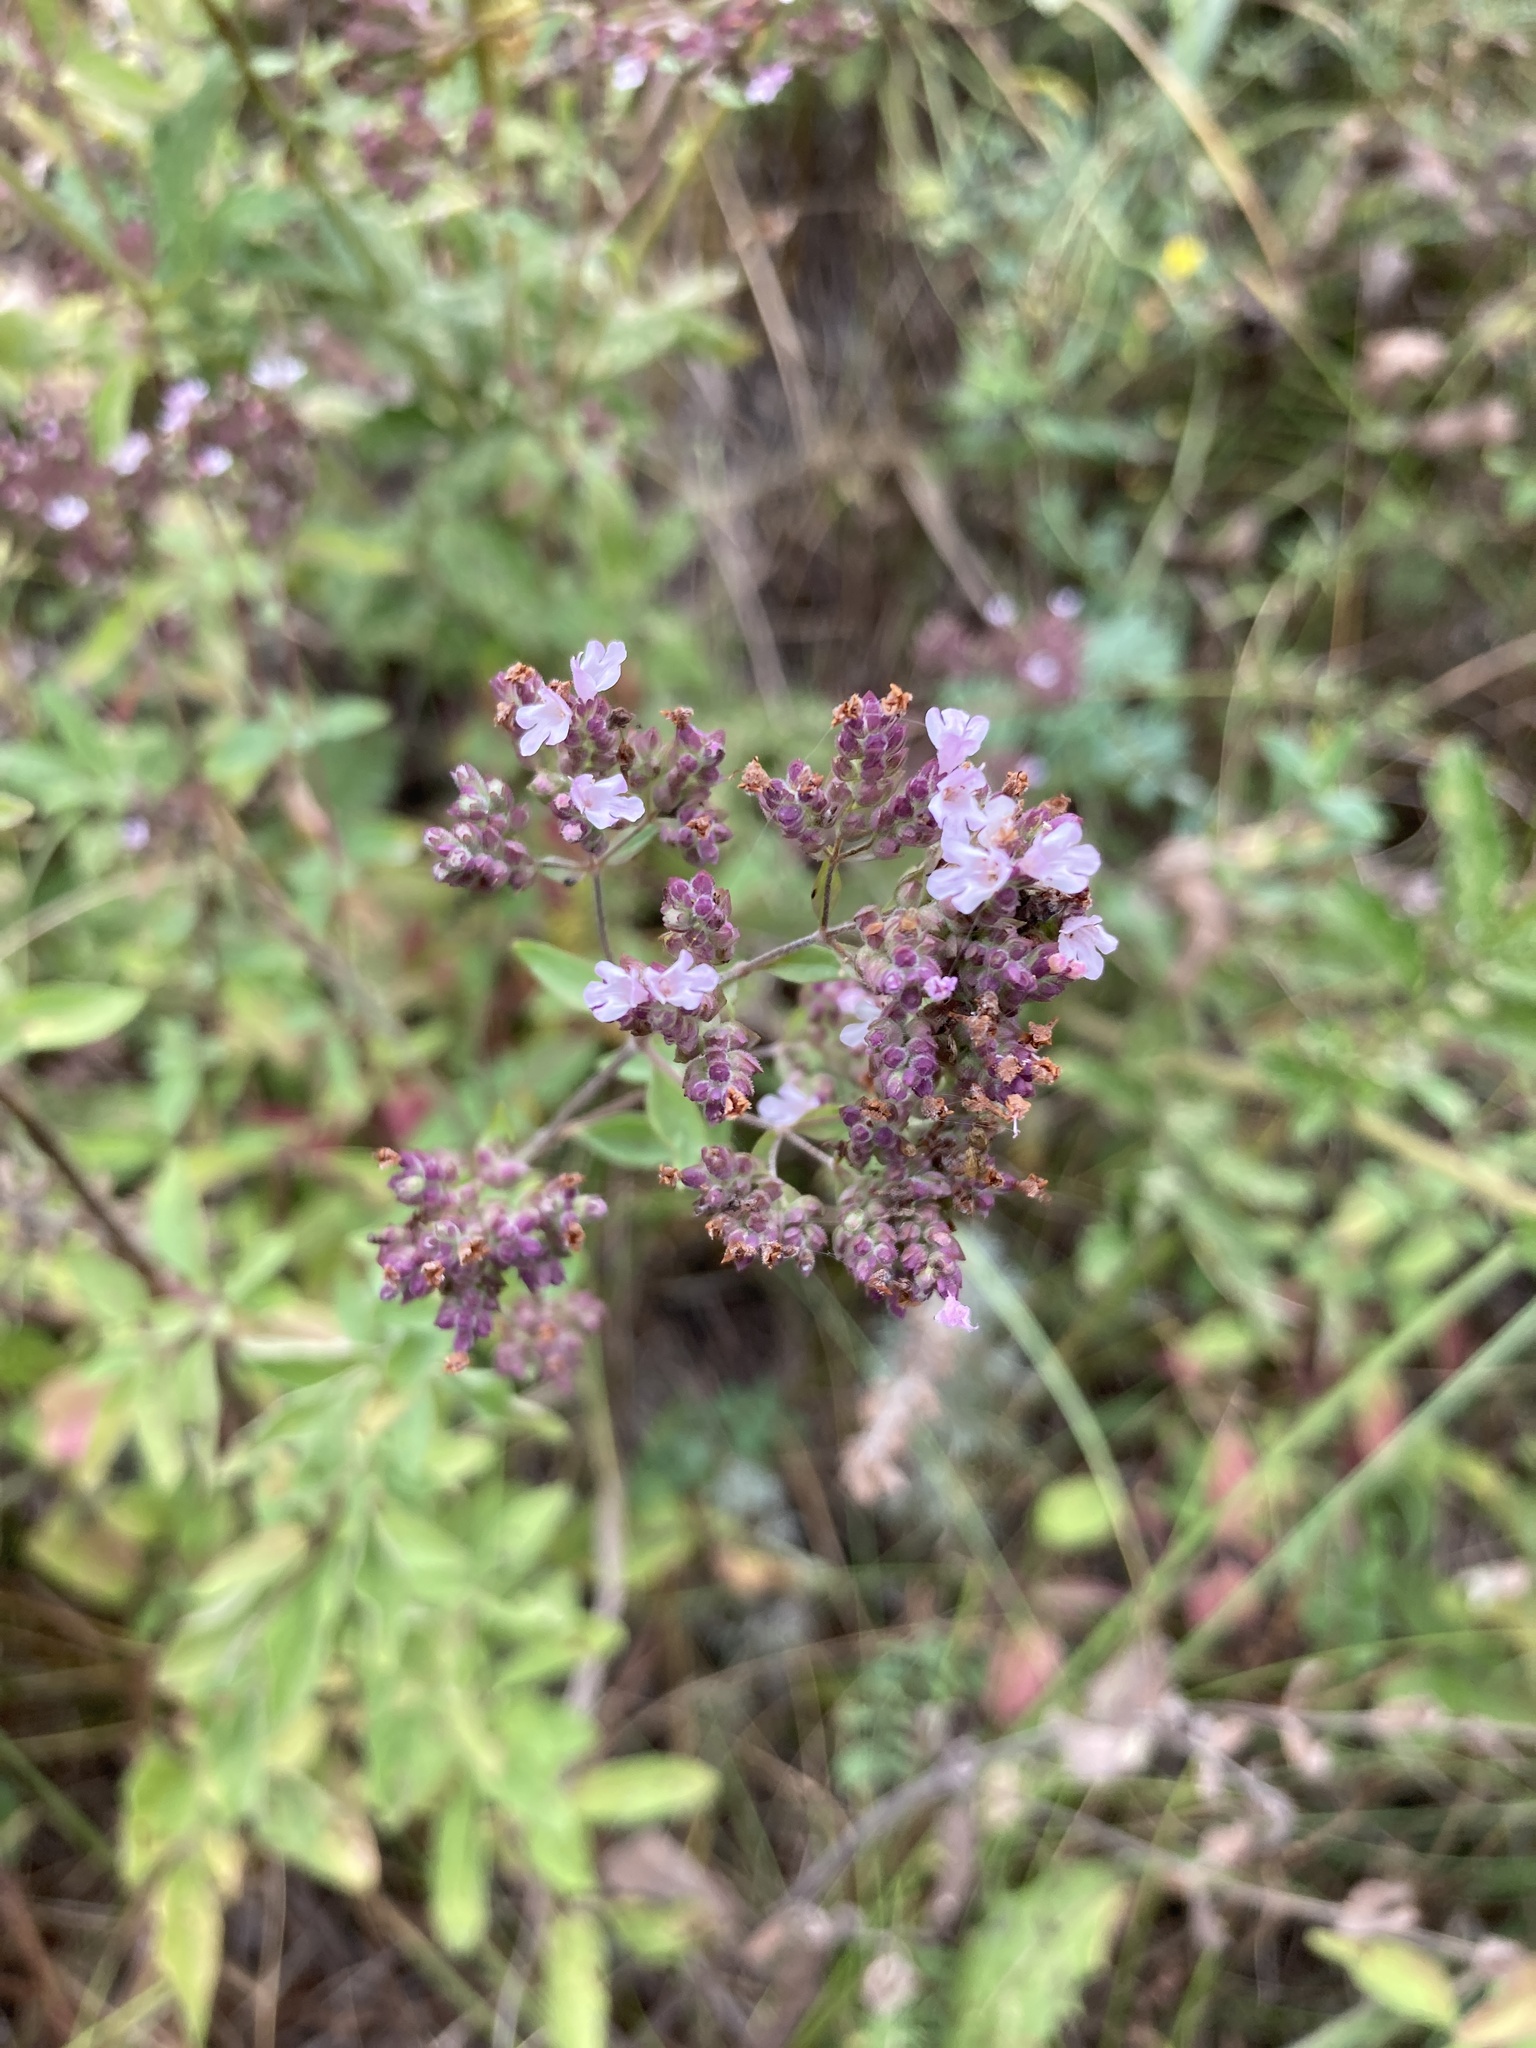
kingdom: Plantae
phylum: Tracheophyta
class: Magnoliopsida
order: Lamiales
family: Lamiaceae
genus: Origanum
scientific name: Origanum vulgare
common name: Wild marjoram
